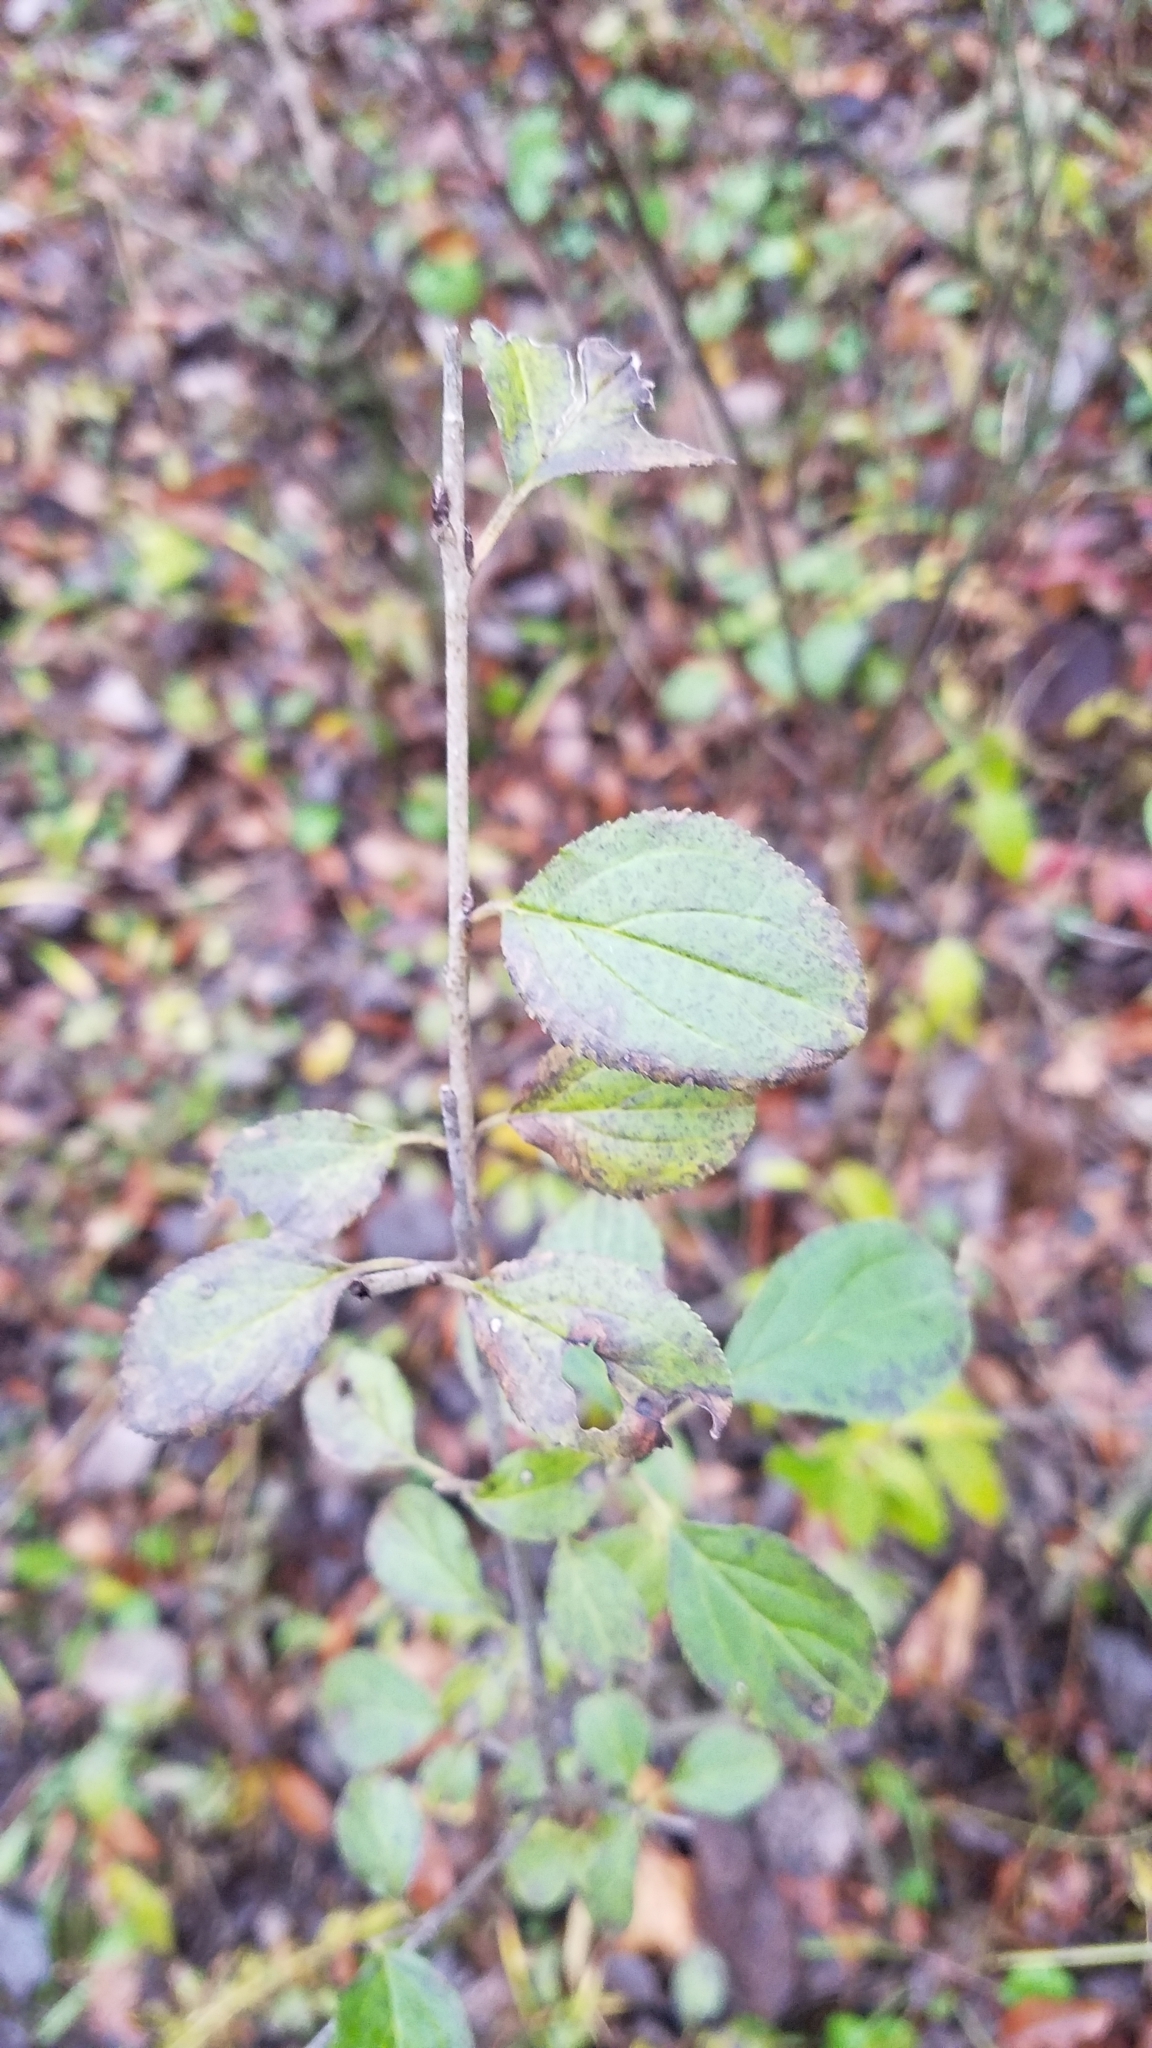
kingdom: Plantae
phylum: Tracheophyta
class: Magnoliopsida
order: Rosales
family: Rhamnaceae
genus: Rhamnus
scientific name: Rhamnus cathartica
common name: Common buckthorn
